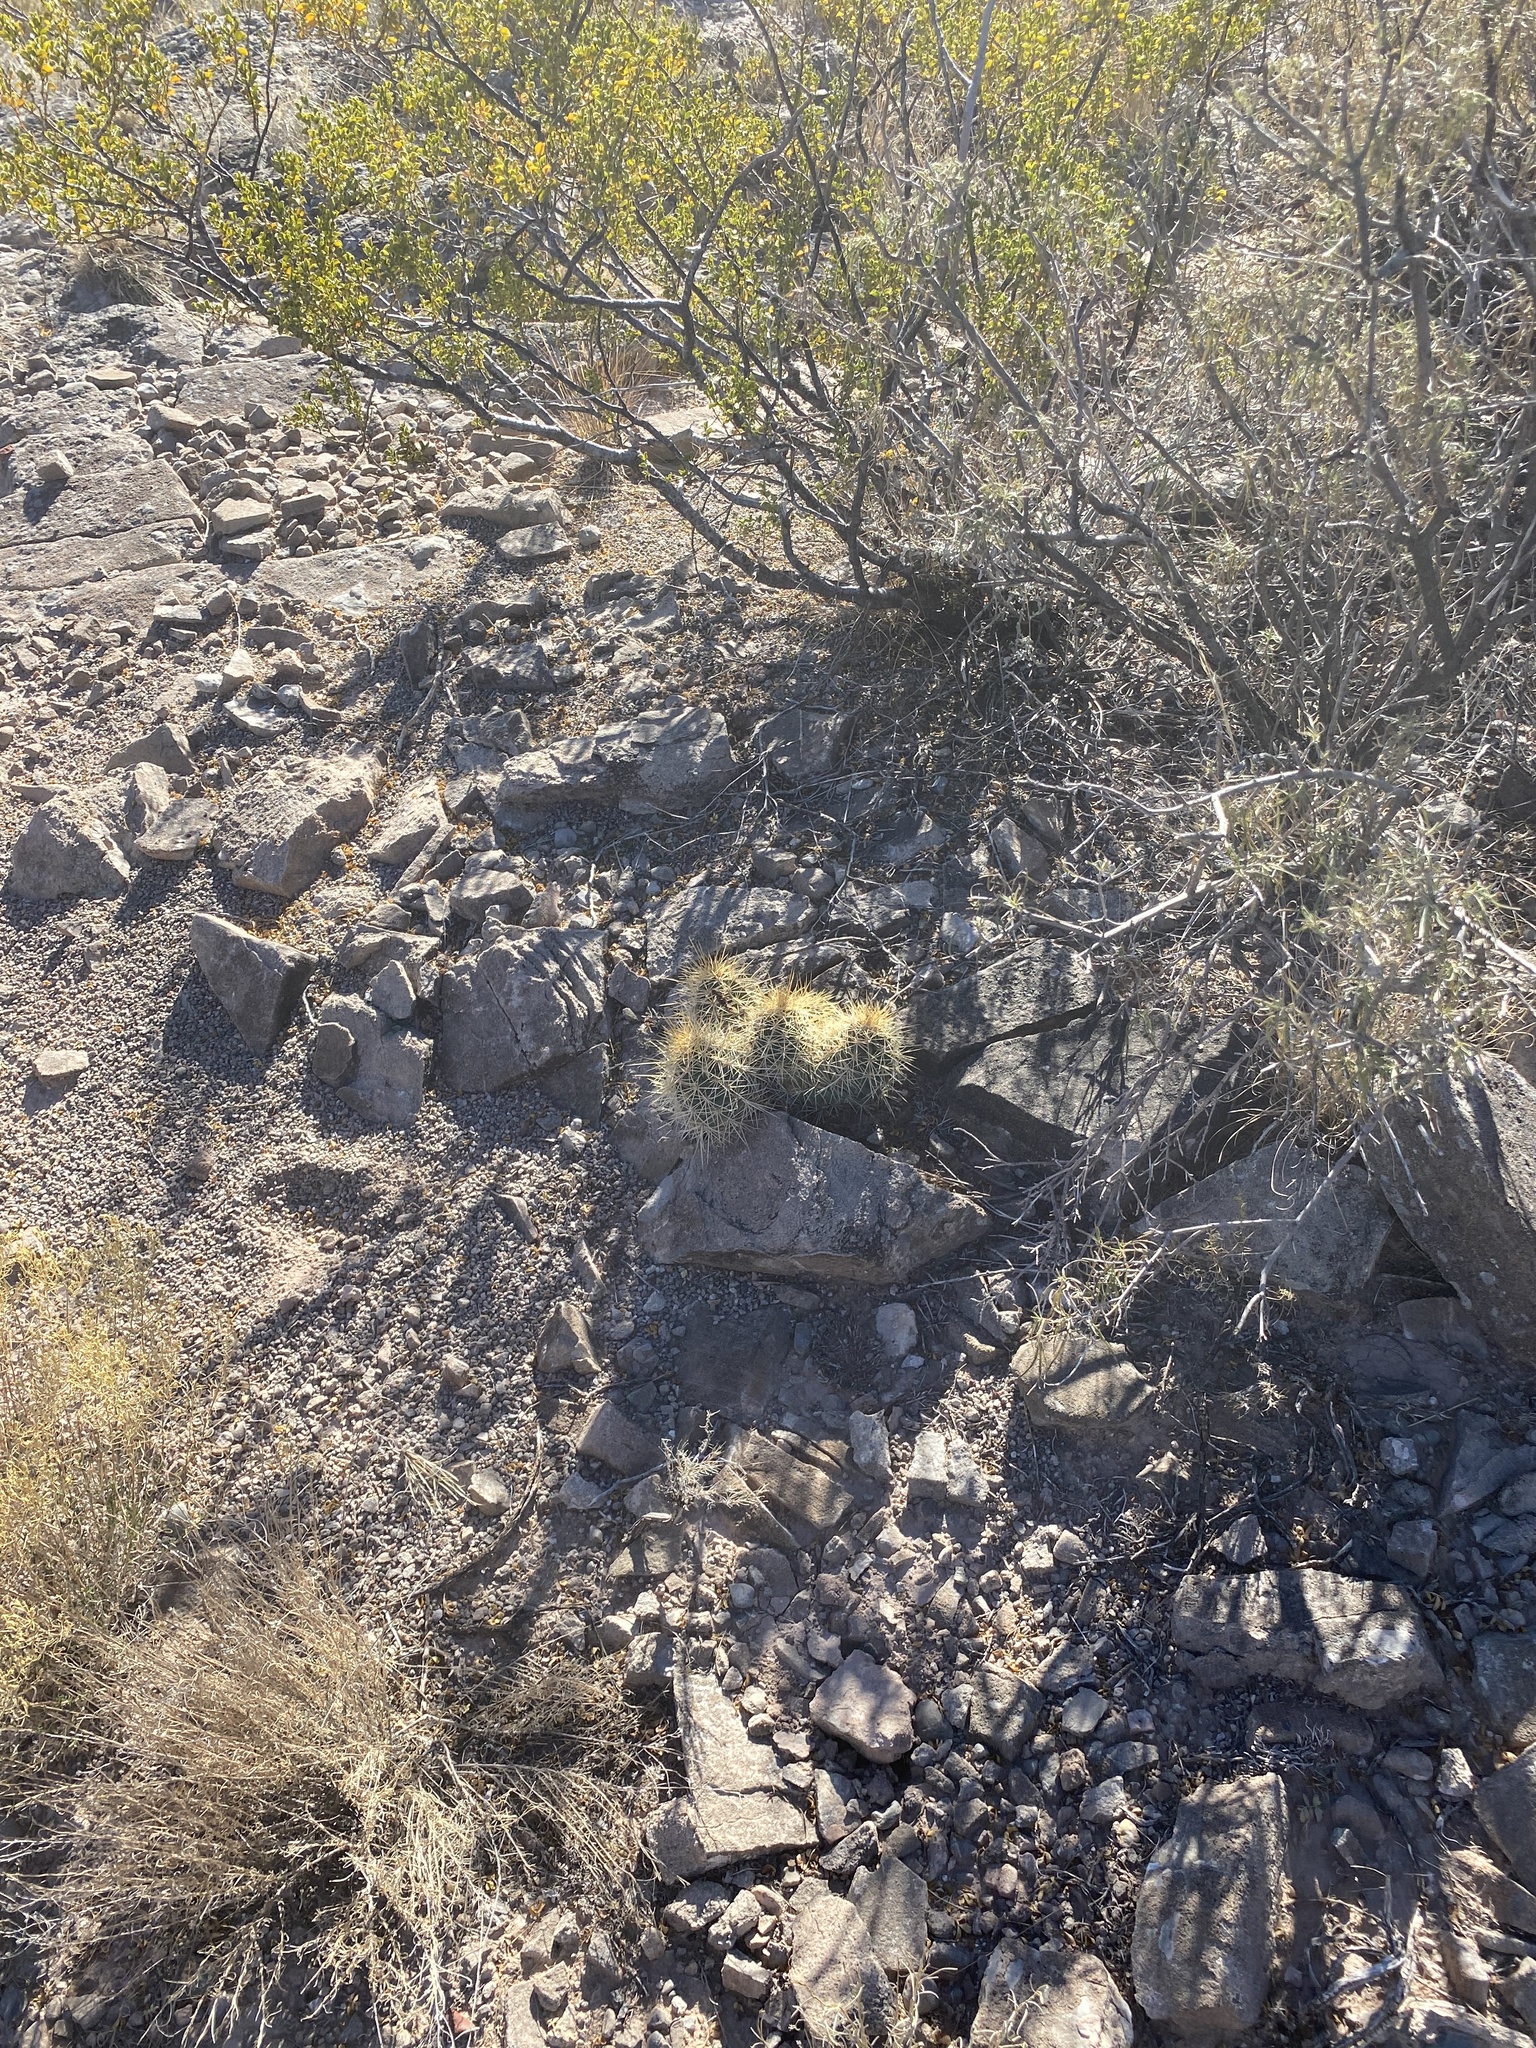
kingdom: Plantae
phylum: Tracheophyta
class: Magnoliopsida
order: Caryophyllales
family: Cactaceae
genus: Echinocereus
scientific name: Echinocereus coccineus
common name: Scarlet hedgehog cactus
